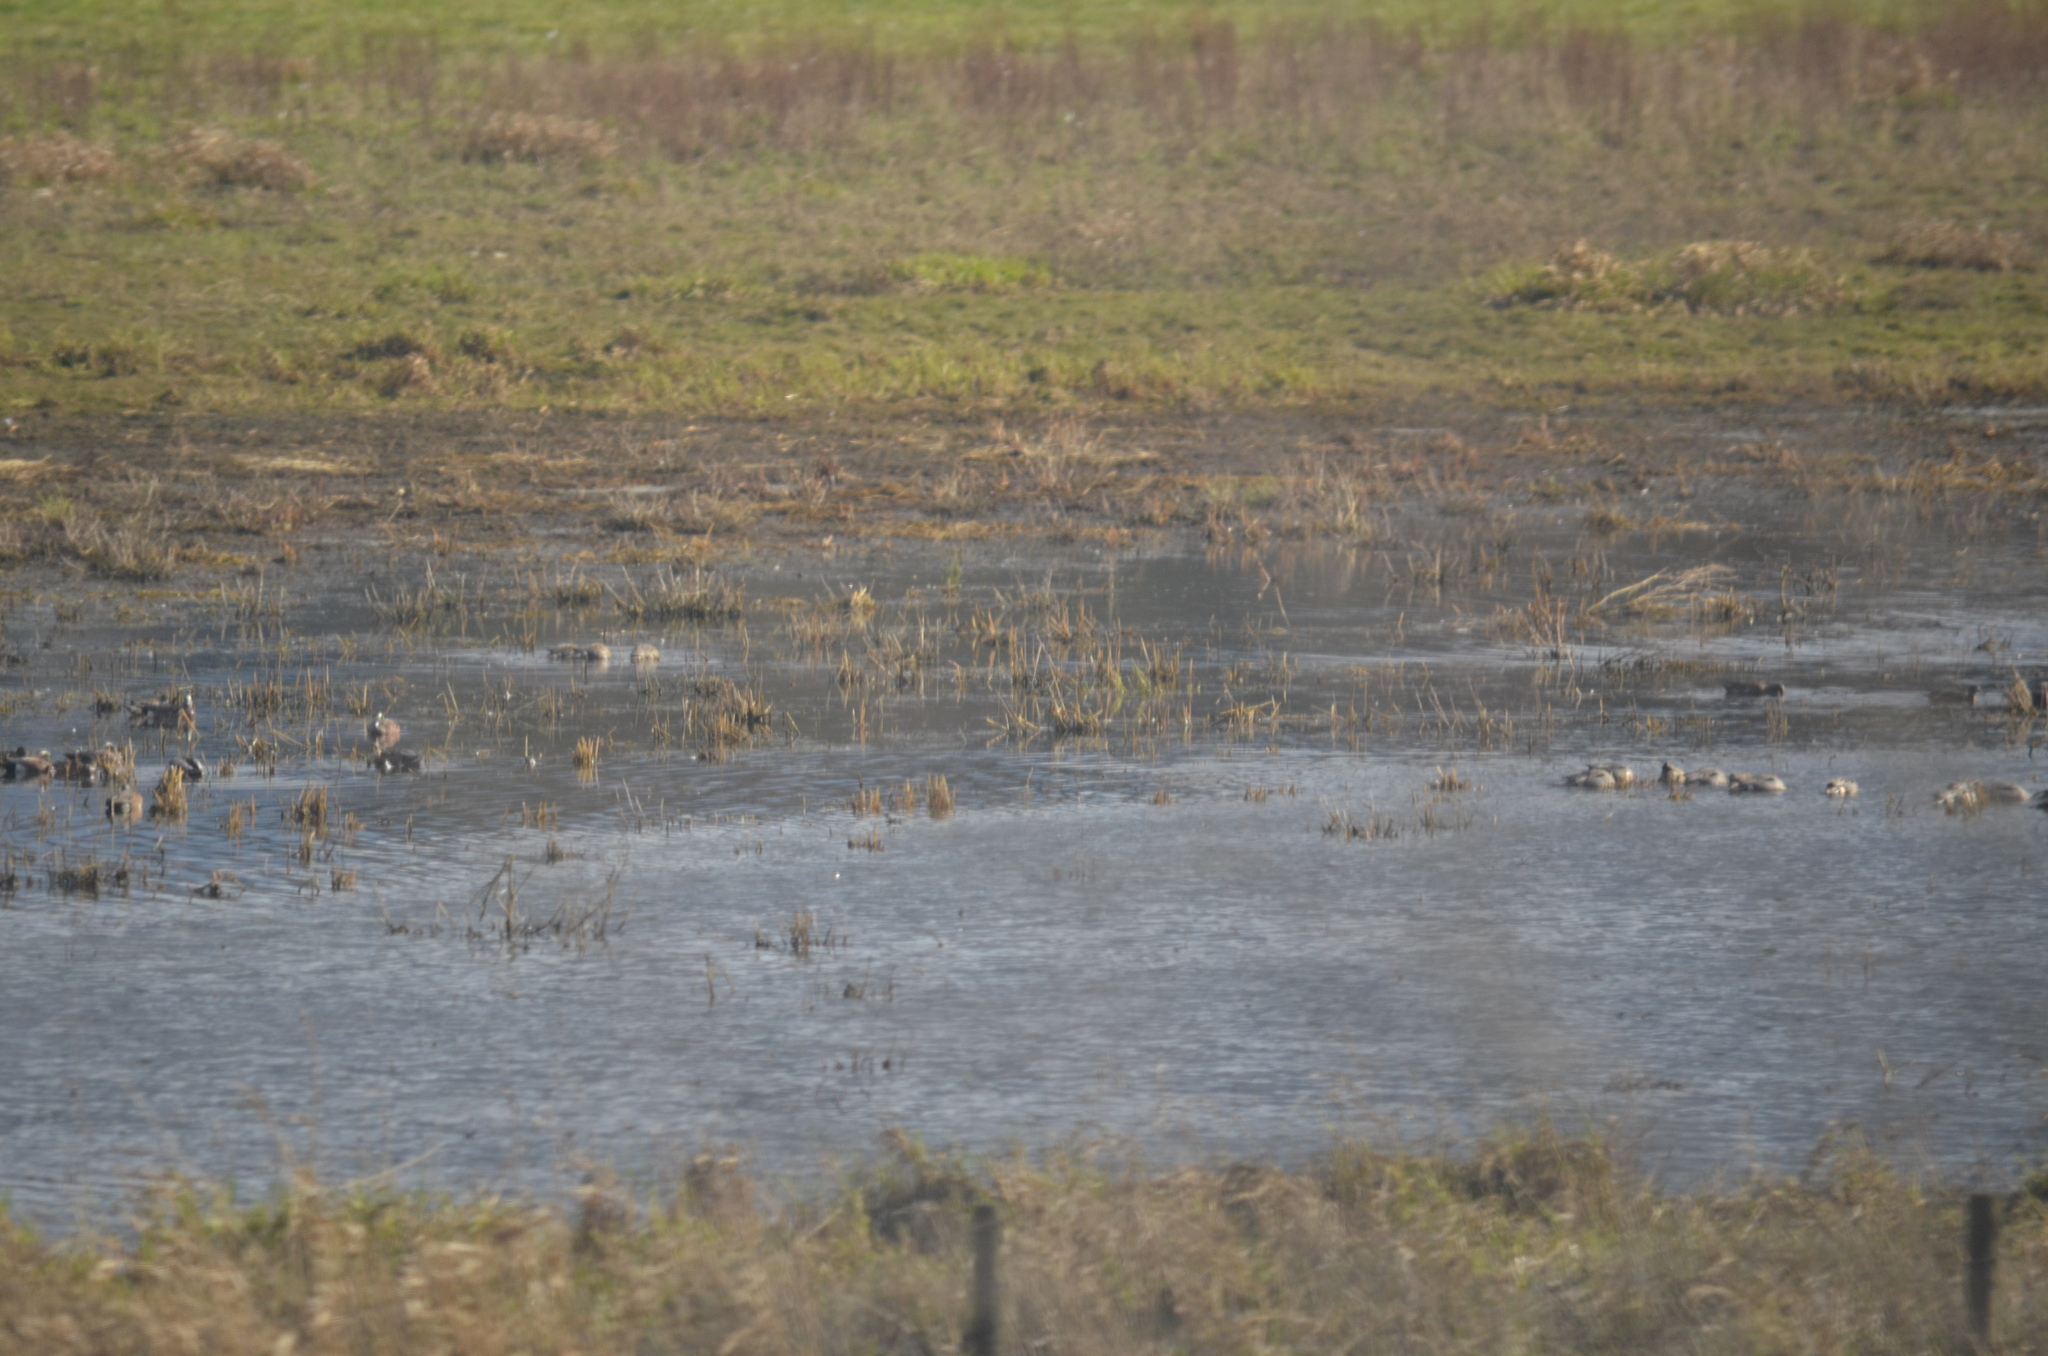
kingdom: Animalia
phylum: Chordata
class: Aves
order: Anseriformes
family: Anatidae
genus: Mareca
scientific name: Mareca americana
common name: American wigeon
